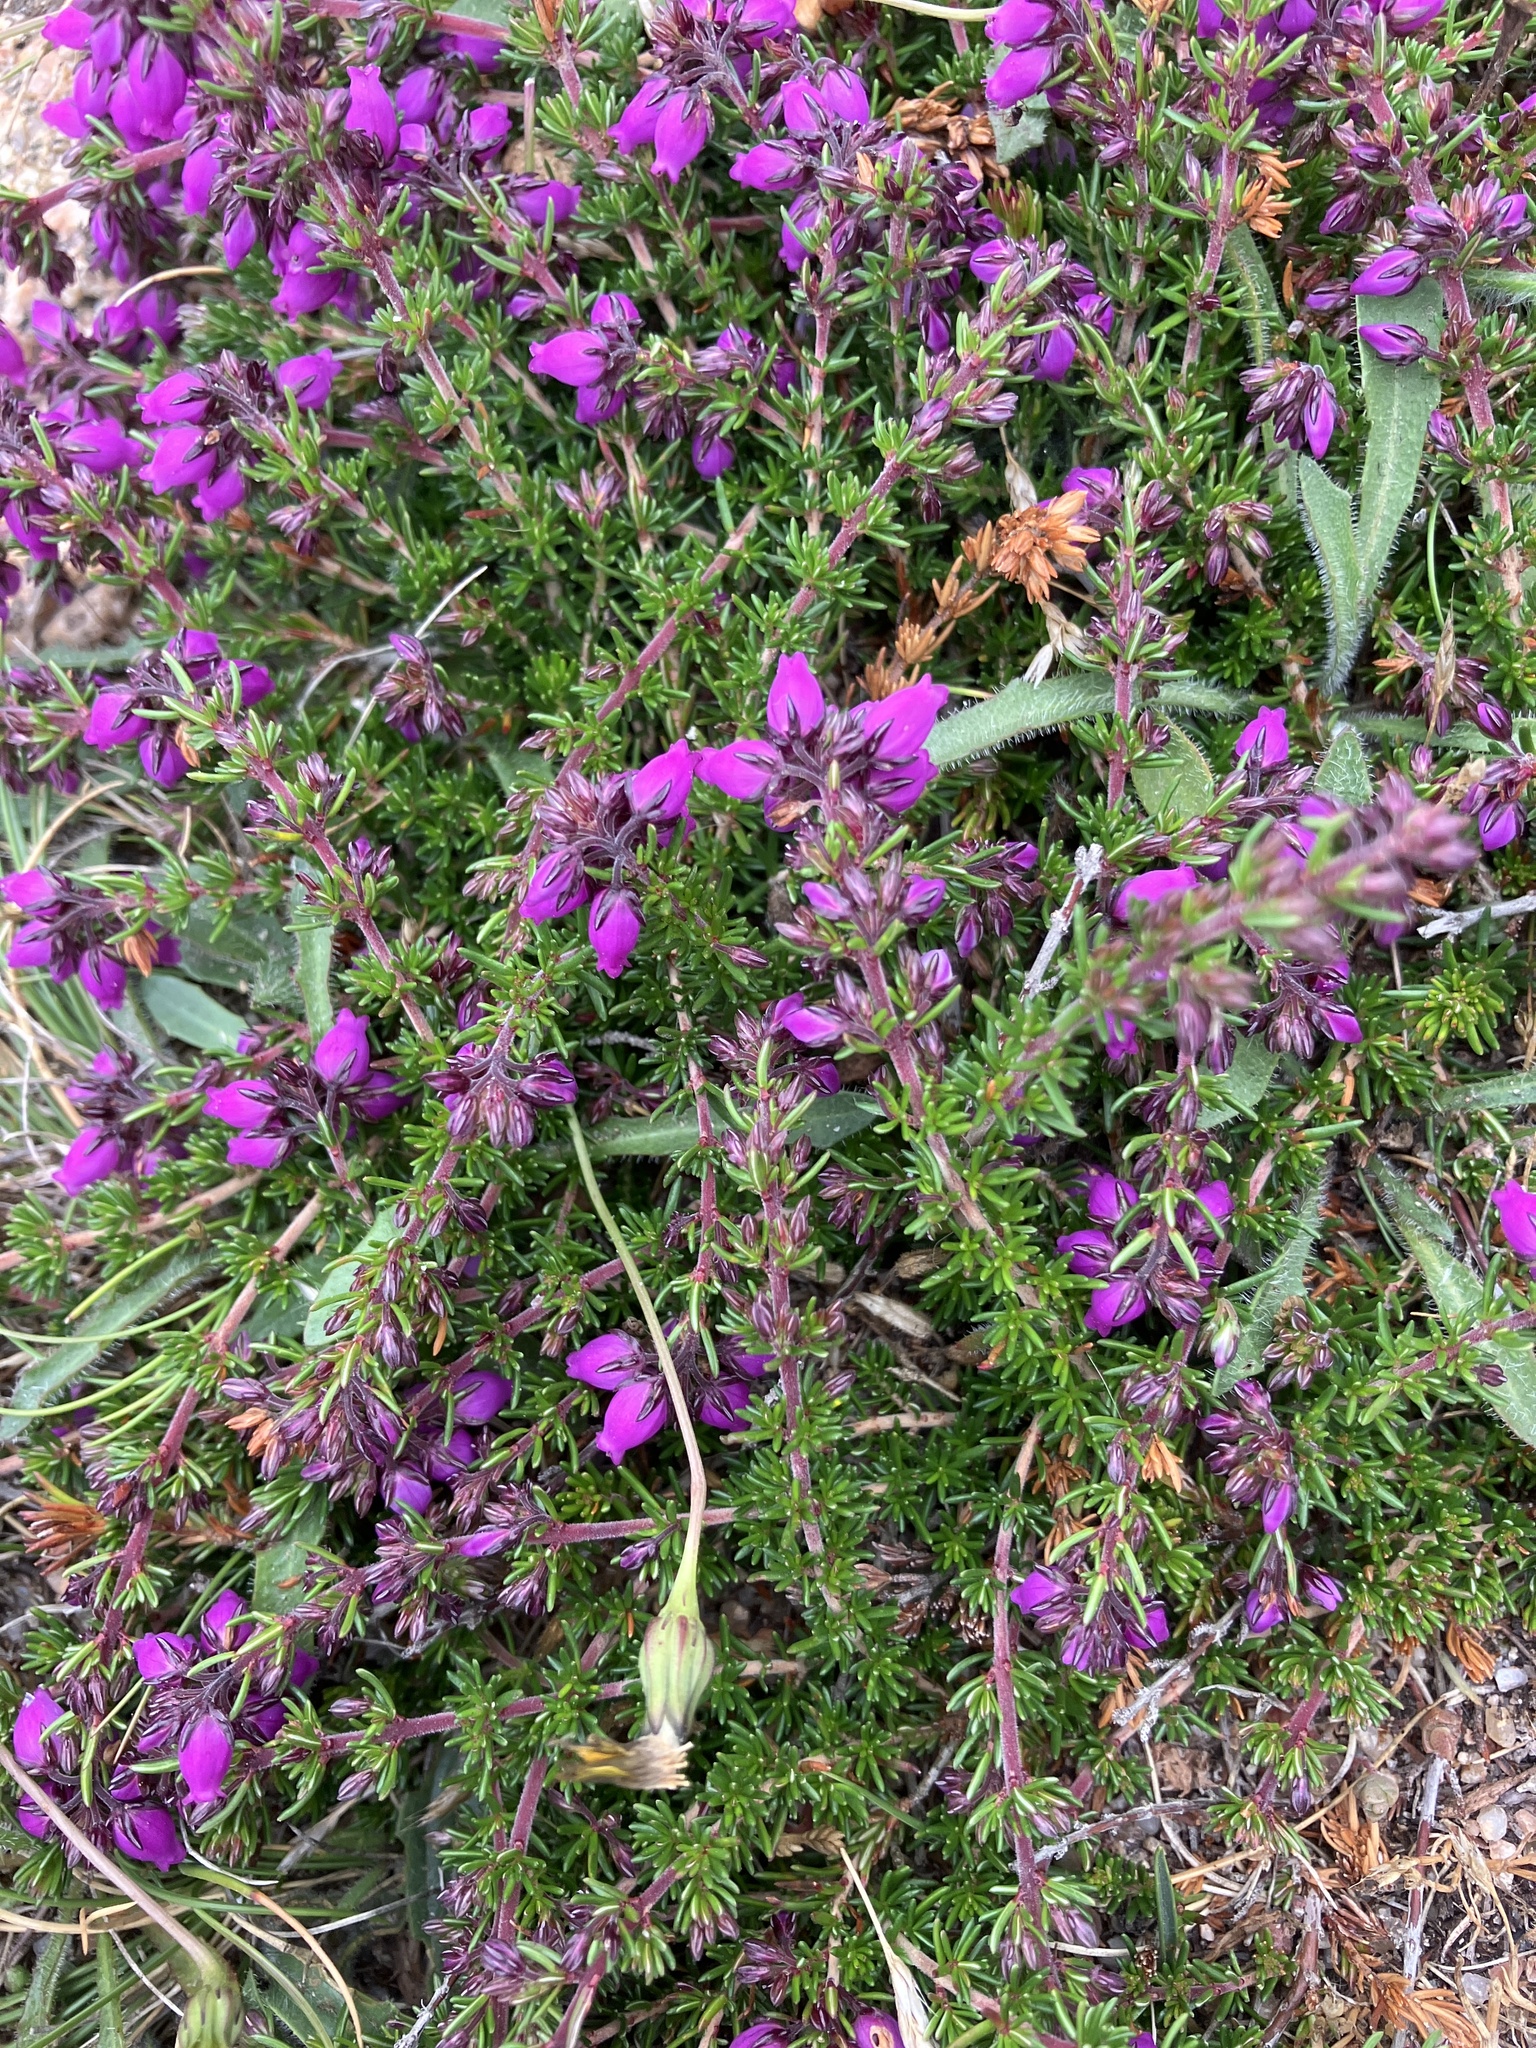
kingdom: Plantae
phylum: Tracheophyta
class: Magnoliopsida
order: Ericales
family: Ericaceae
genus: Erica
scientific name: Erica cinerea
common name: Bell heather
